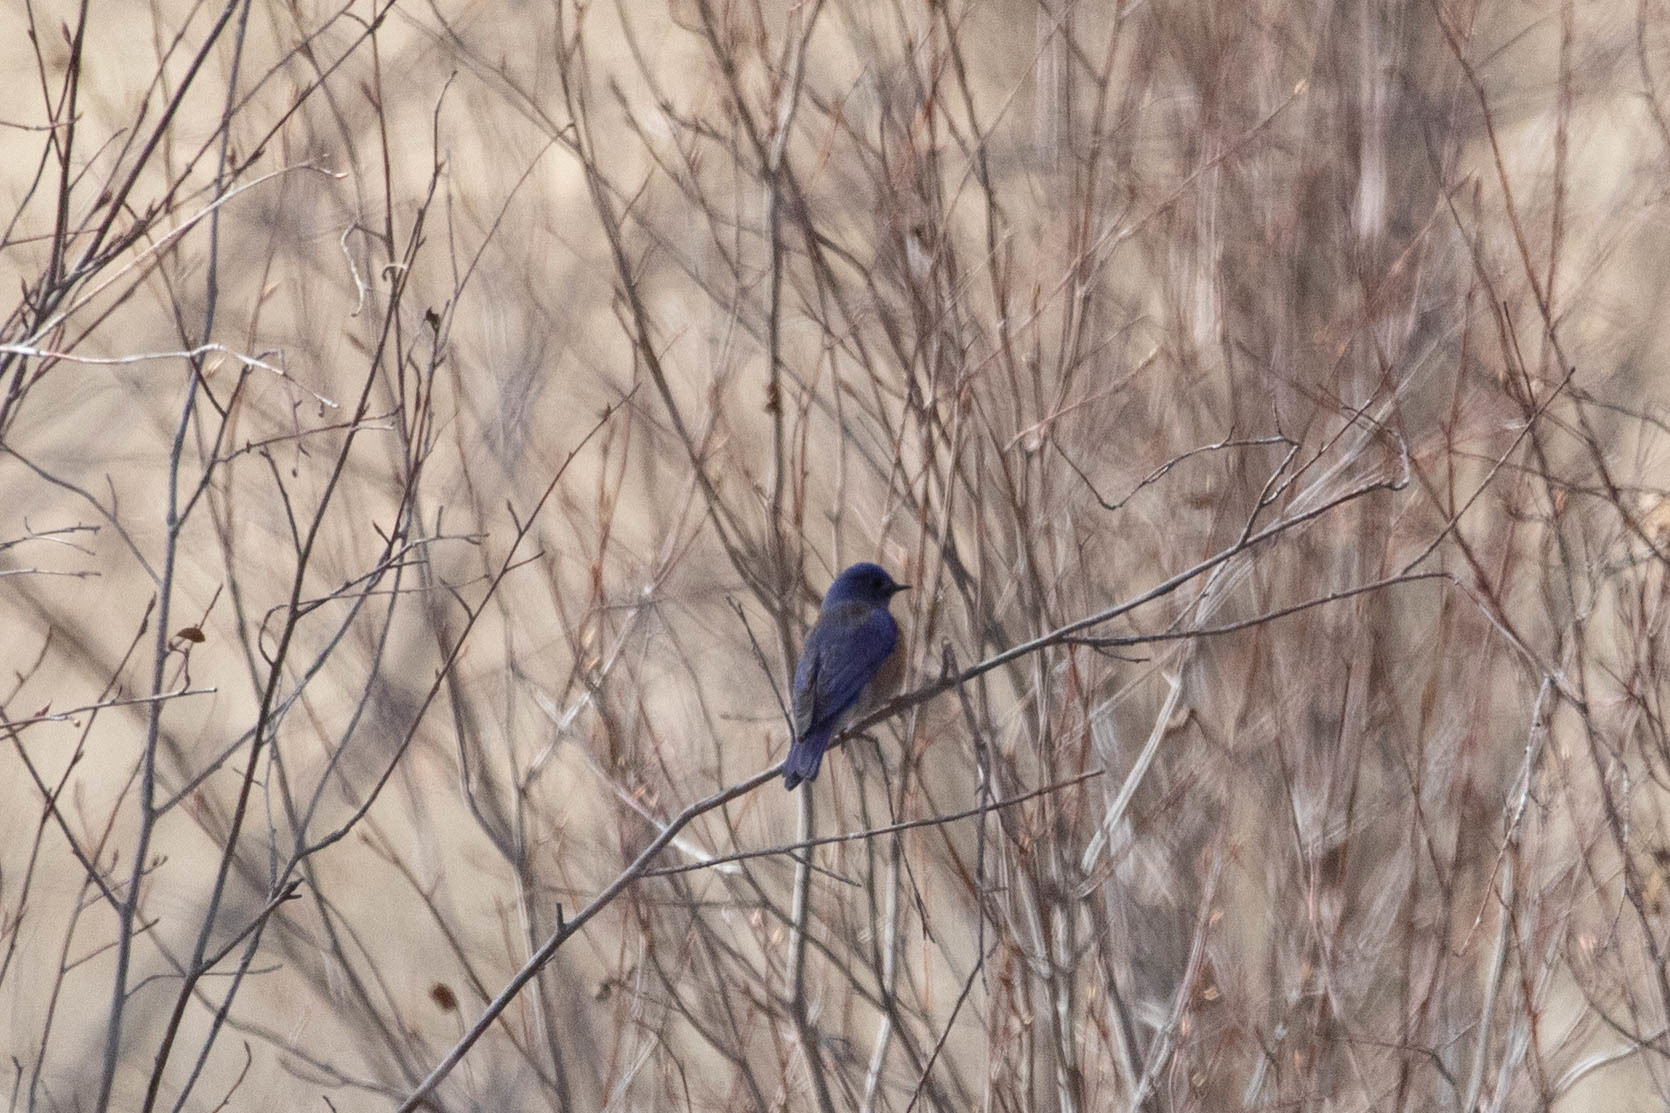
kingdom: Animalia
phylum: Chordata
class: Aves
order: Passeriformes
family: Turdidae
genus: Sialia
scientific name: Sialia mexicana
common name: Western bluebird
